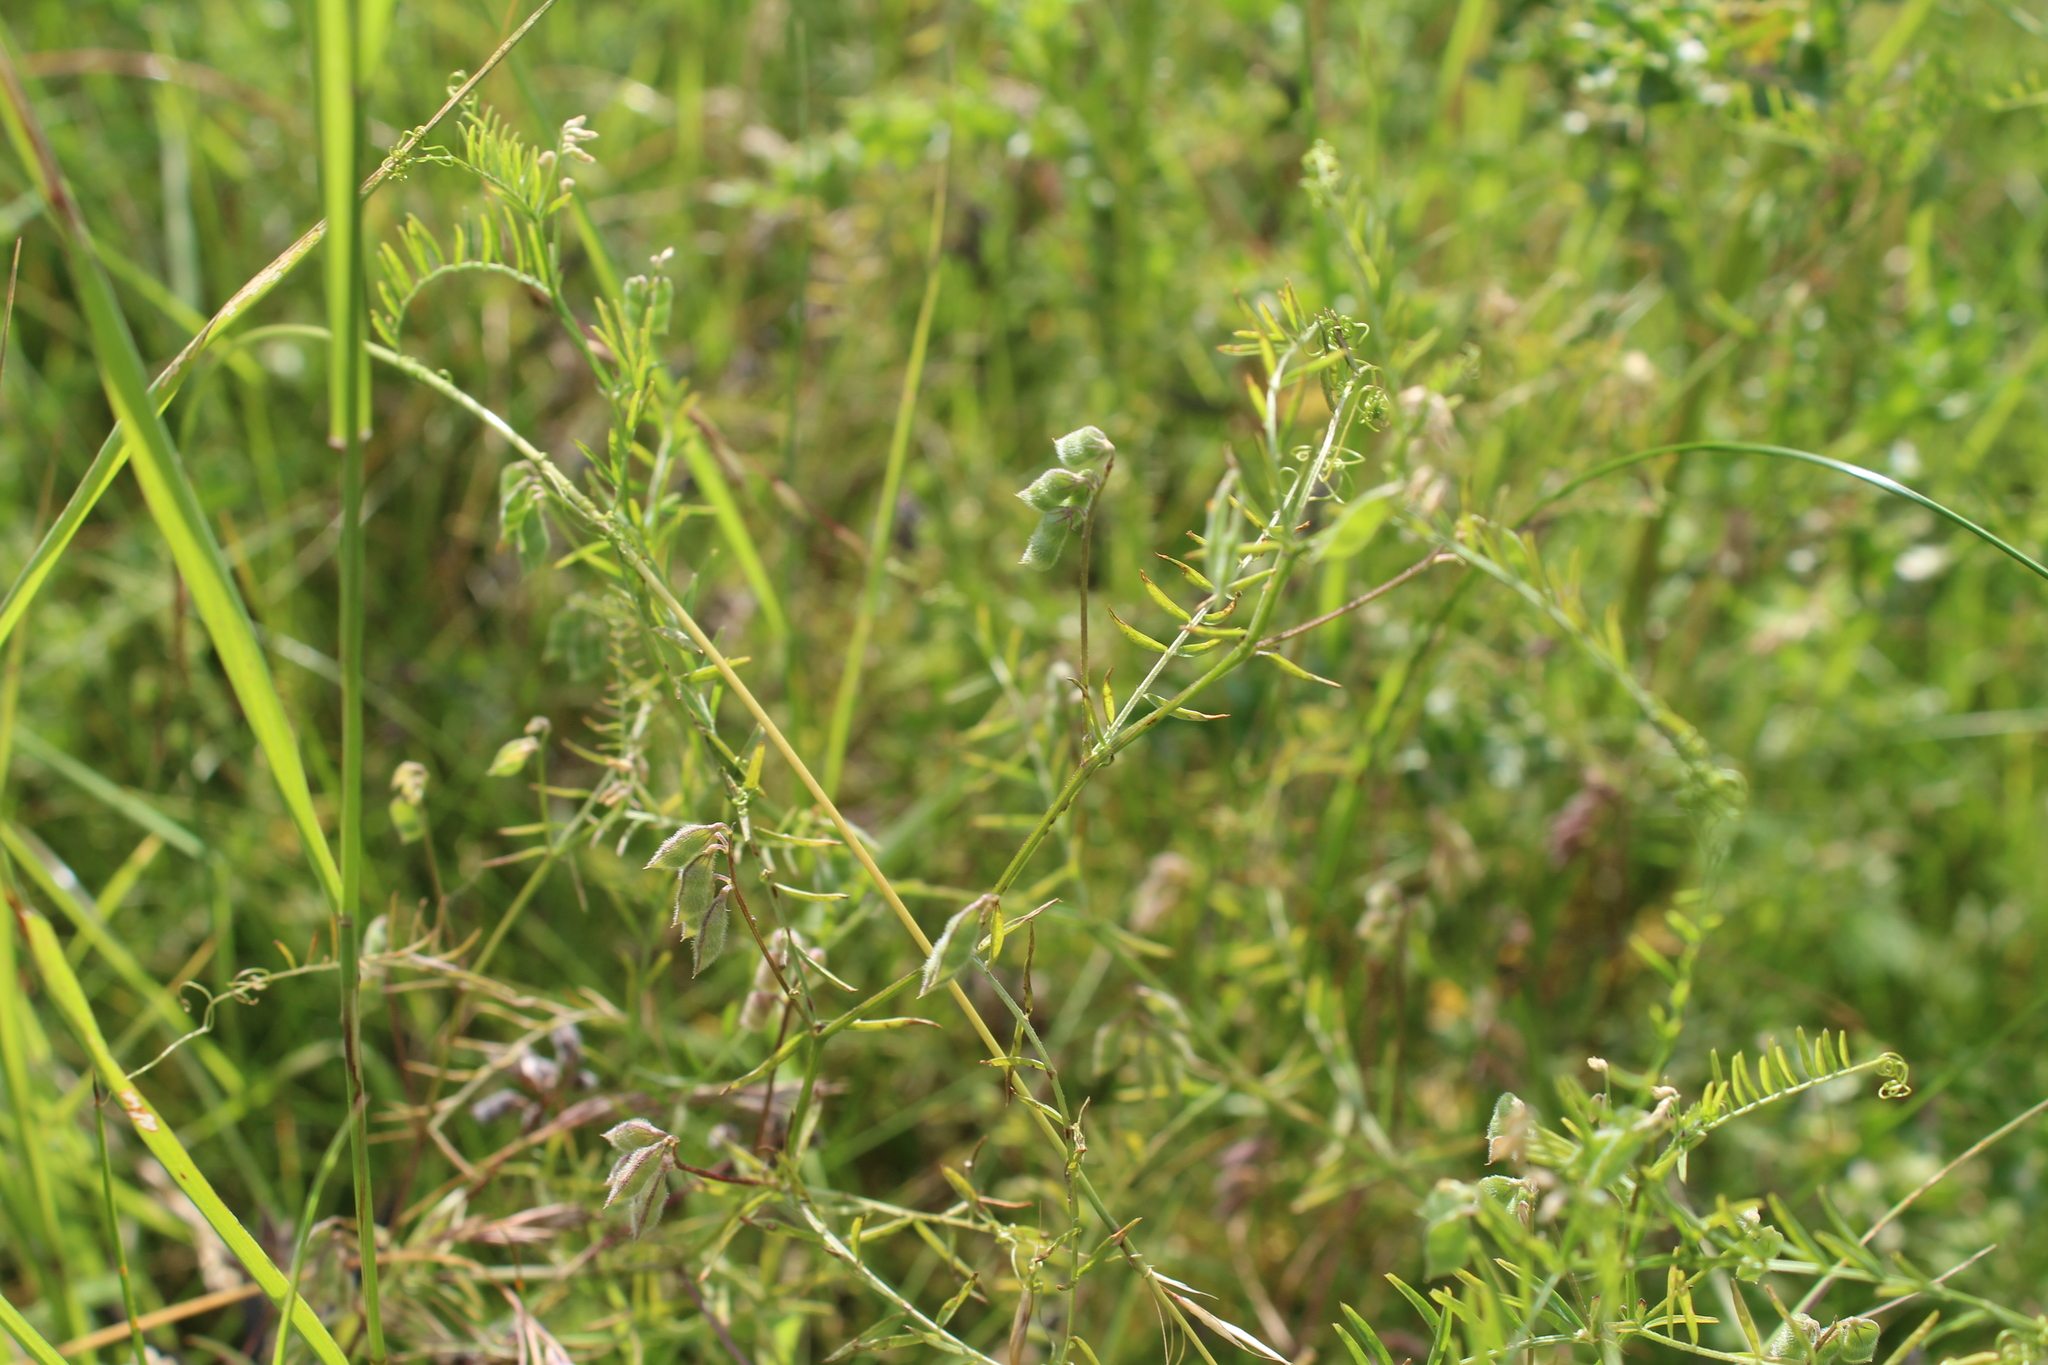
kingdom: Plantae
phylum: Tracheophyta
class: Magnoliopsida
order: Fabales
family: Fabaceae
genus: Vicia
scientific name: Vicia hirsuta
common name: Tiny vetch
